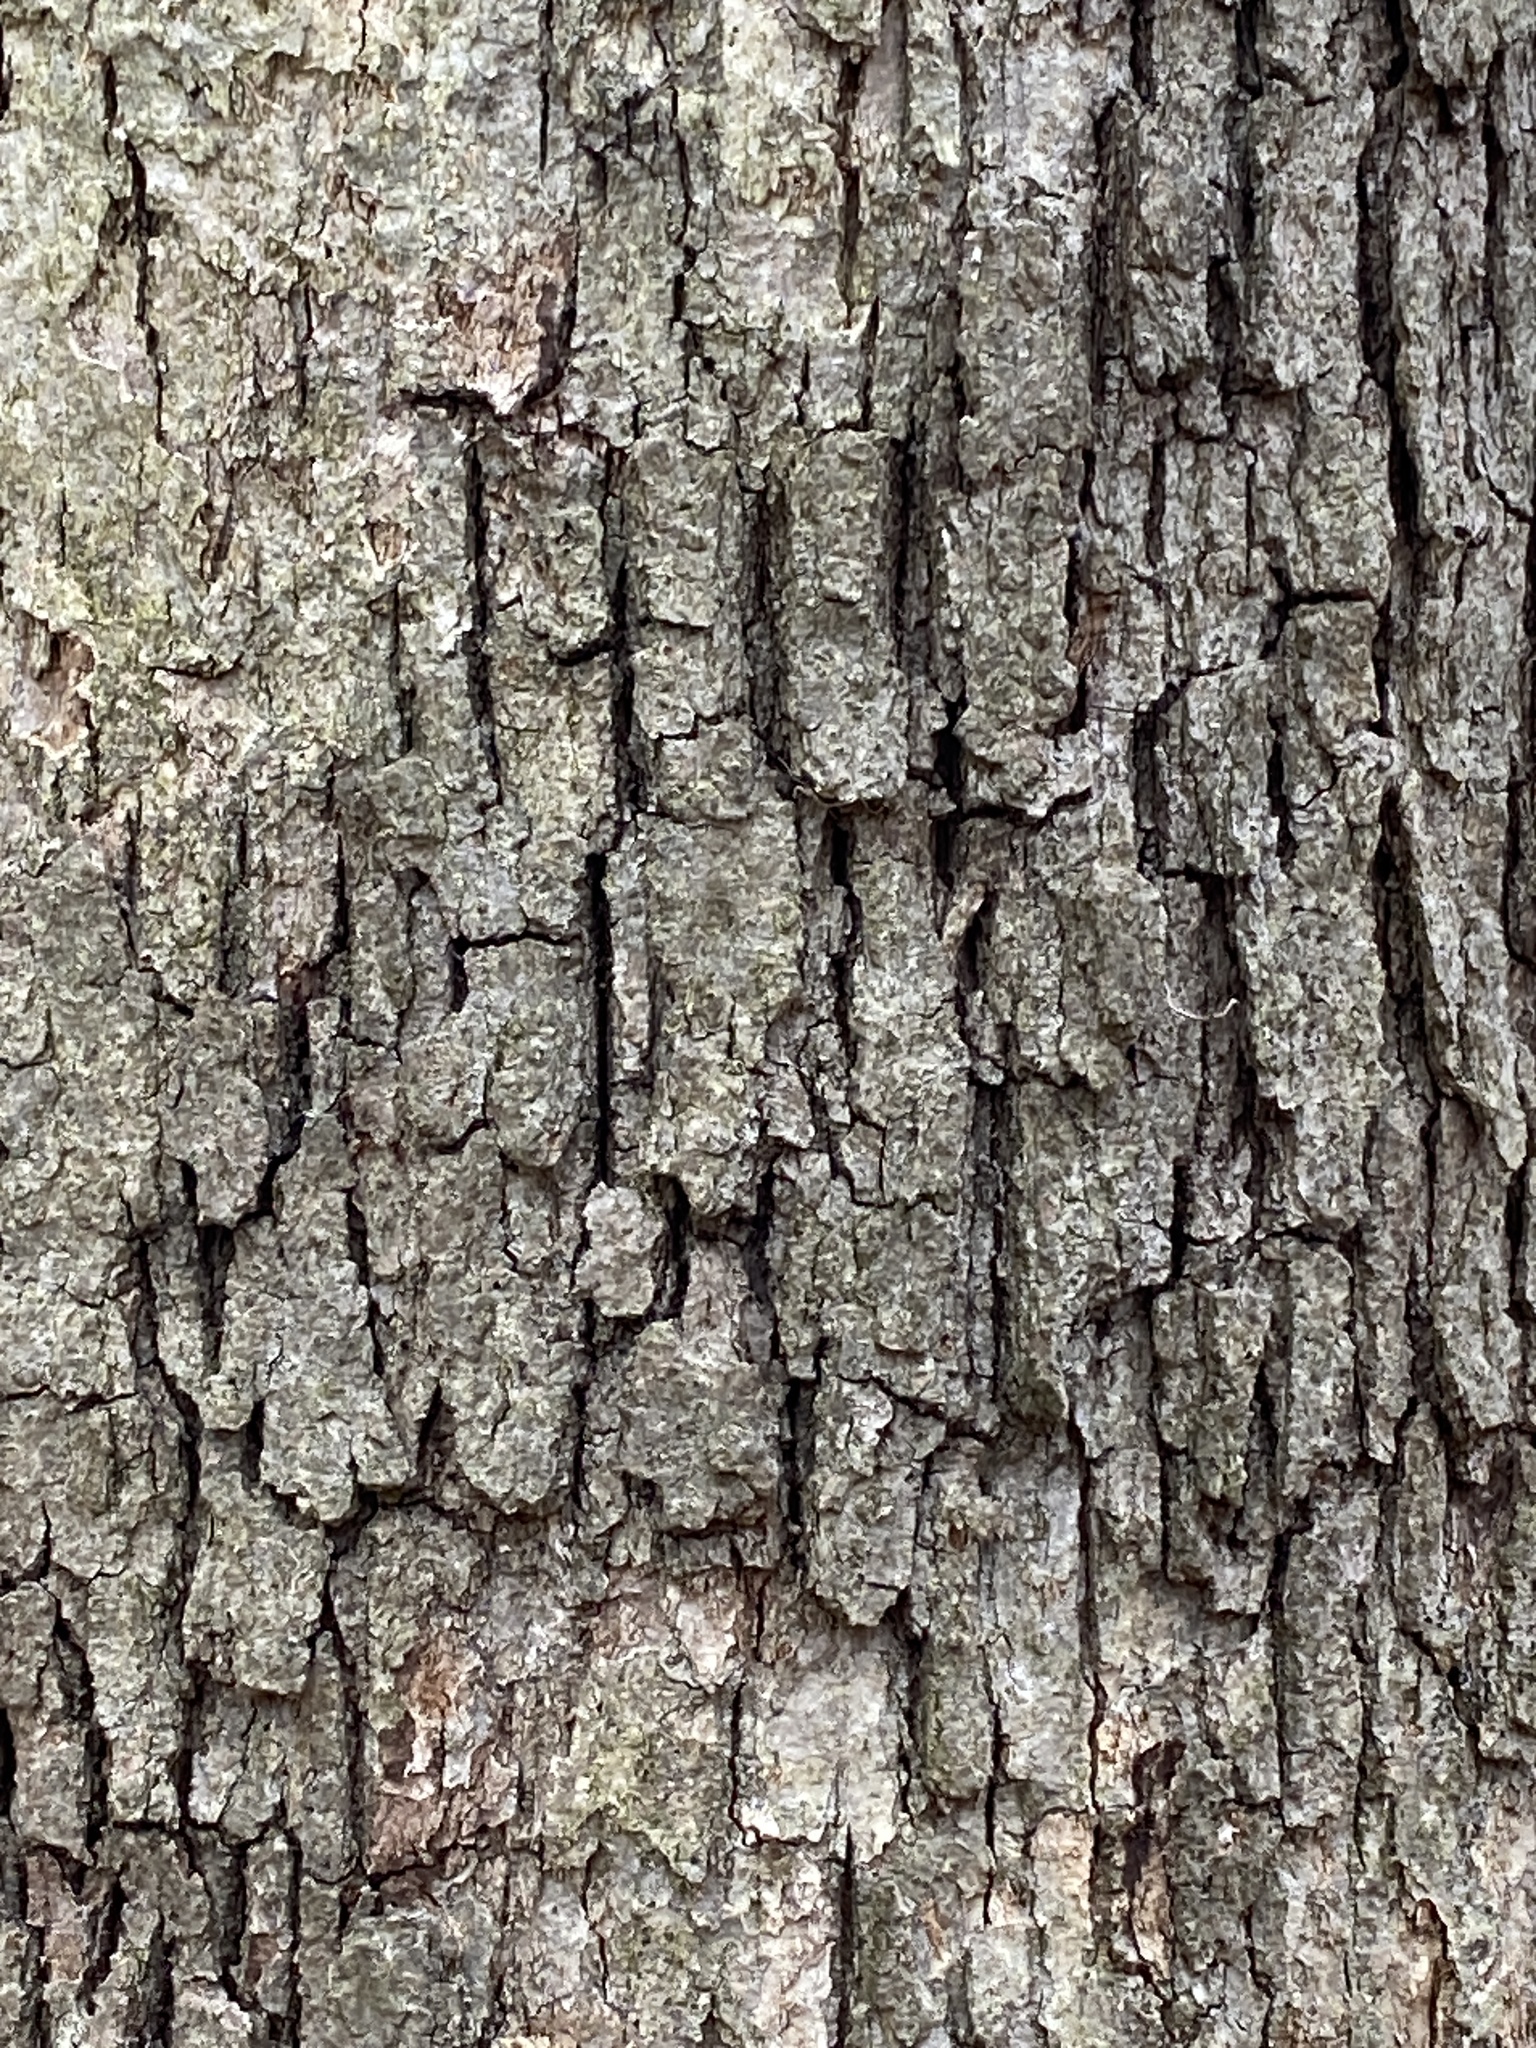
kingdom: Fungi
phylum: Basidiomycota
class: Agaricomycetes
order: Russulales
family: Stereaceae
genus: Acanthophysium
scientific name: Acanthophysium oakesii
